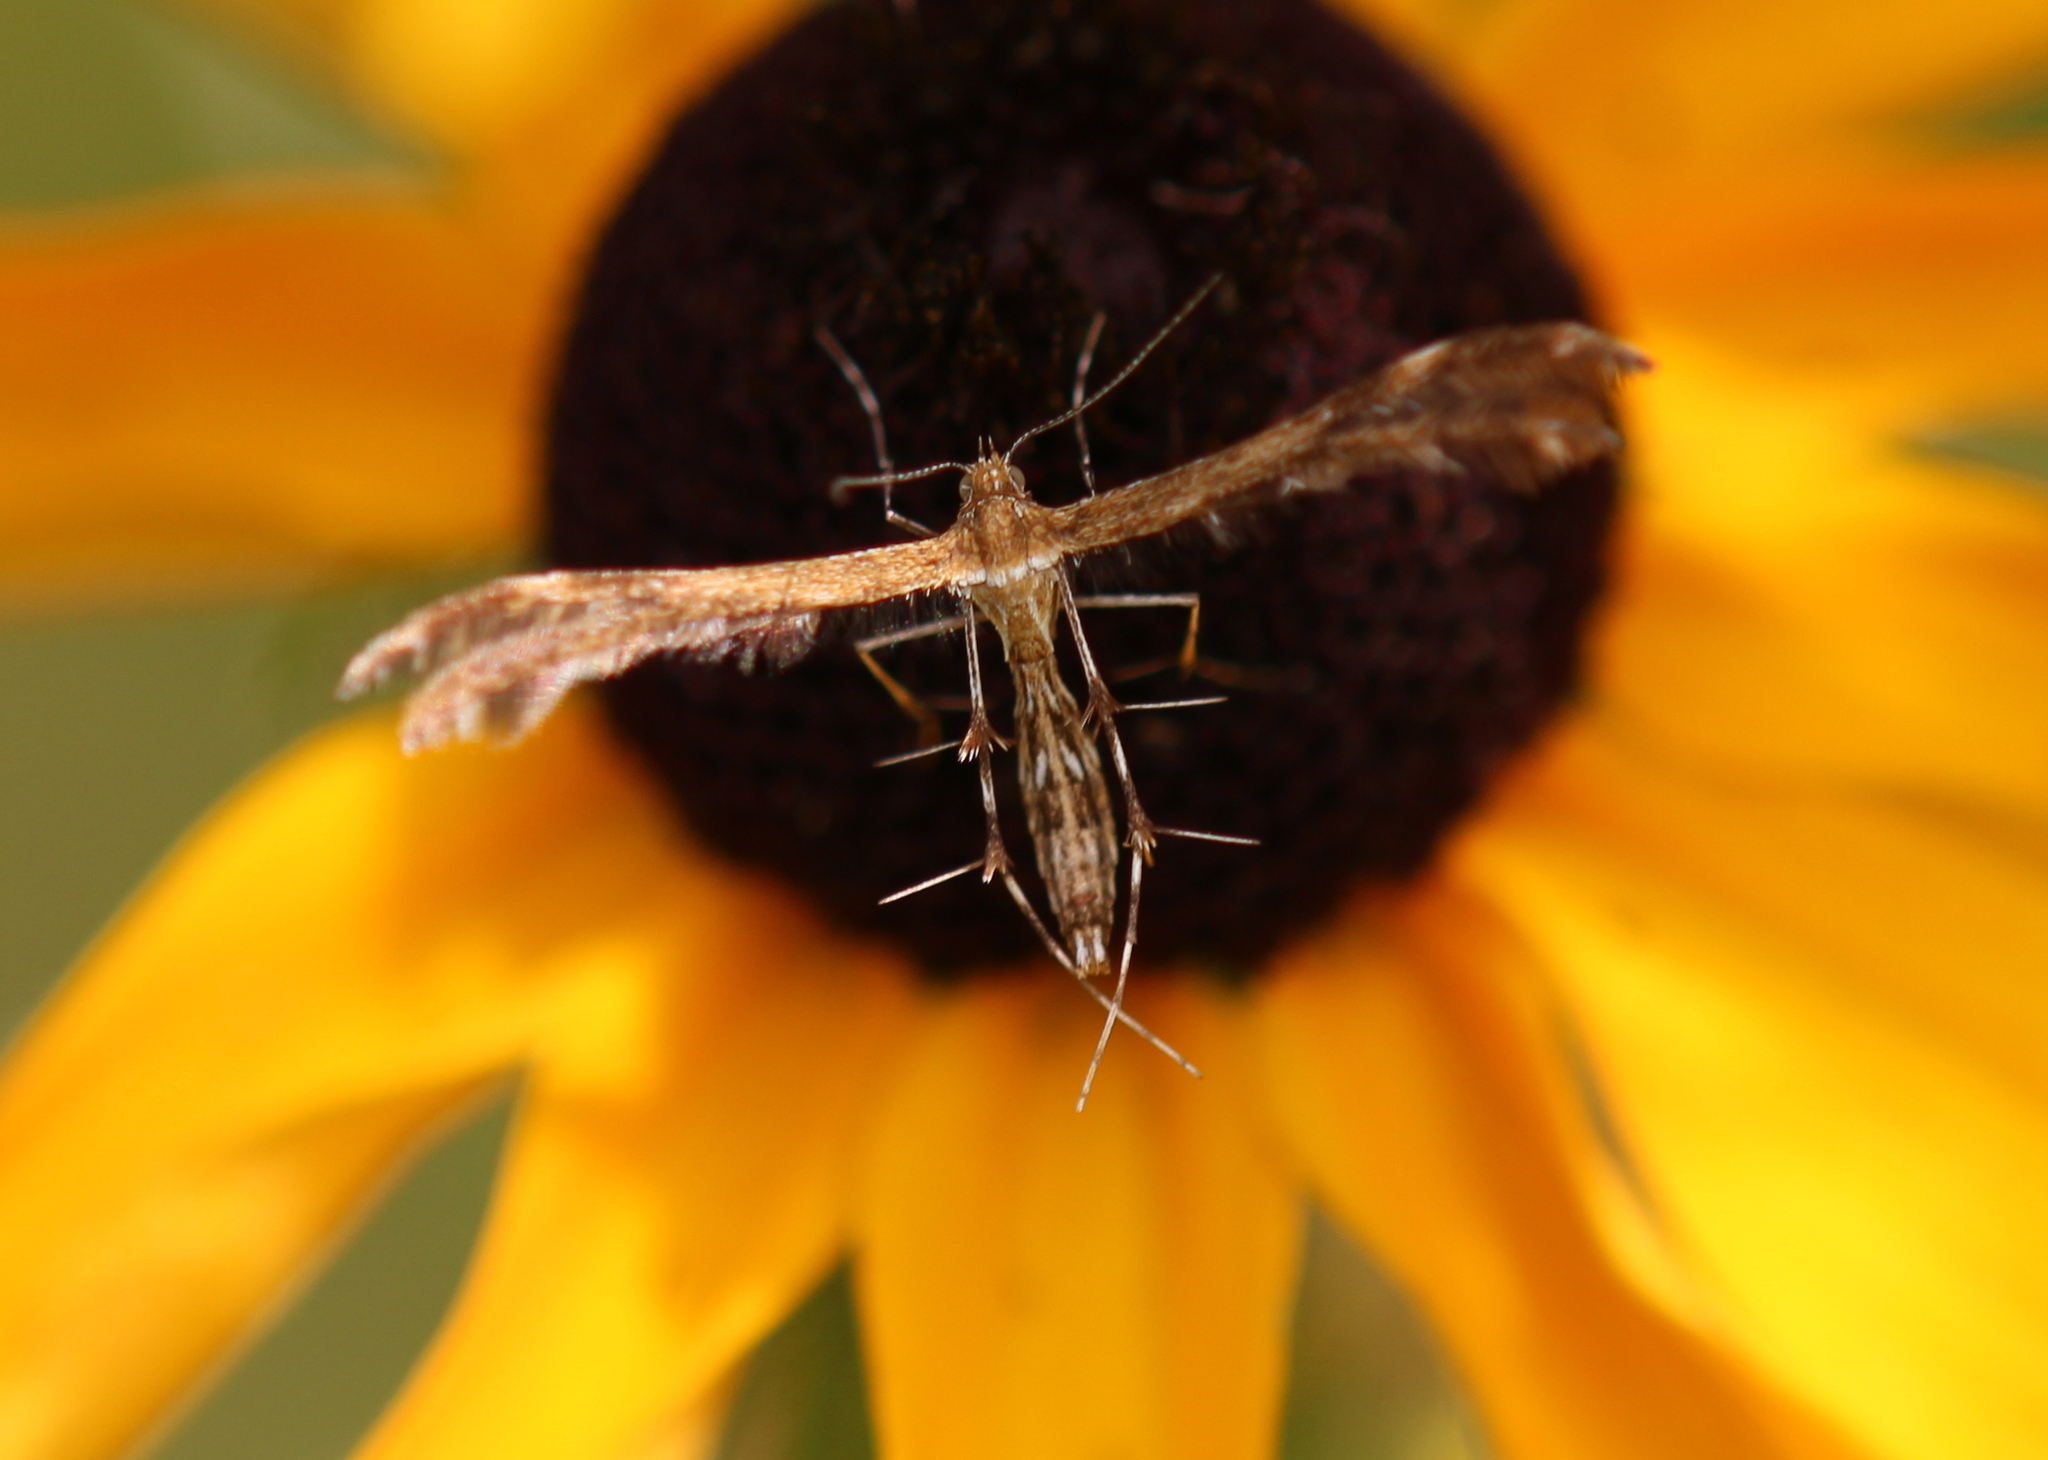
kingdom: Animalia
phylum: Arthropoda
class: Insecta
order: Lepidoptera
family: Pterophoridae
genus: Dejongia
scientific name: Dejongia lobidactylus
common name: Lobed plume moth
